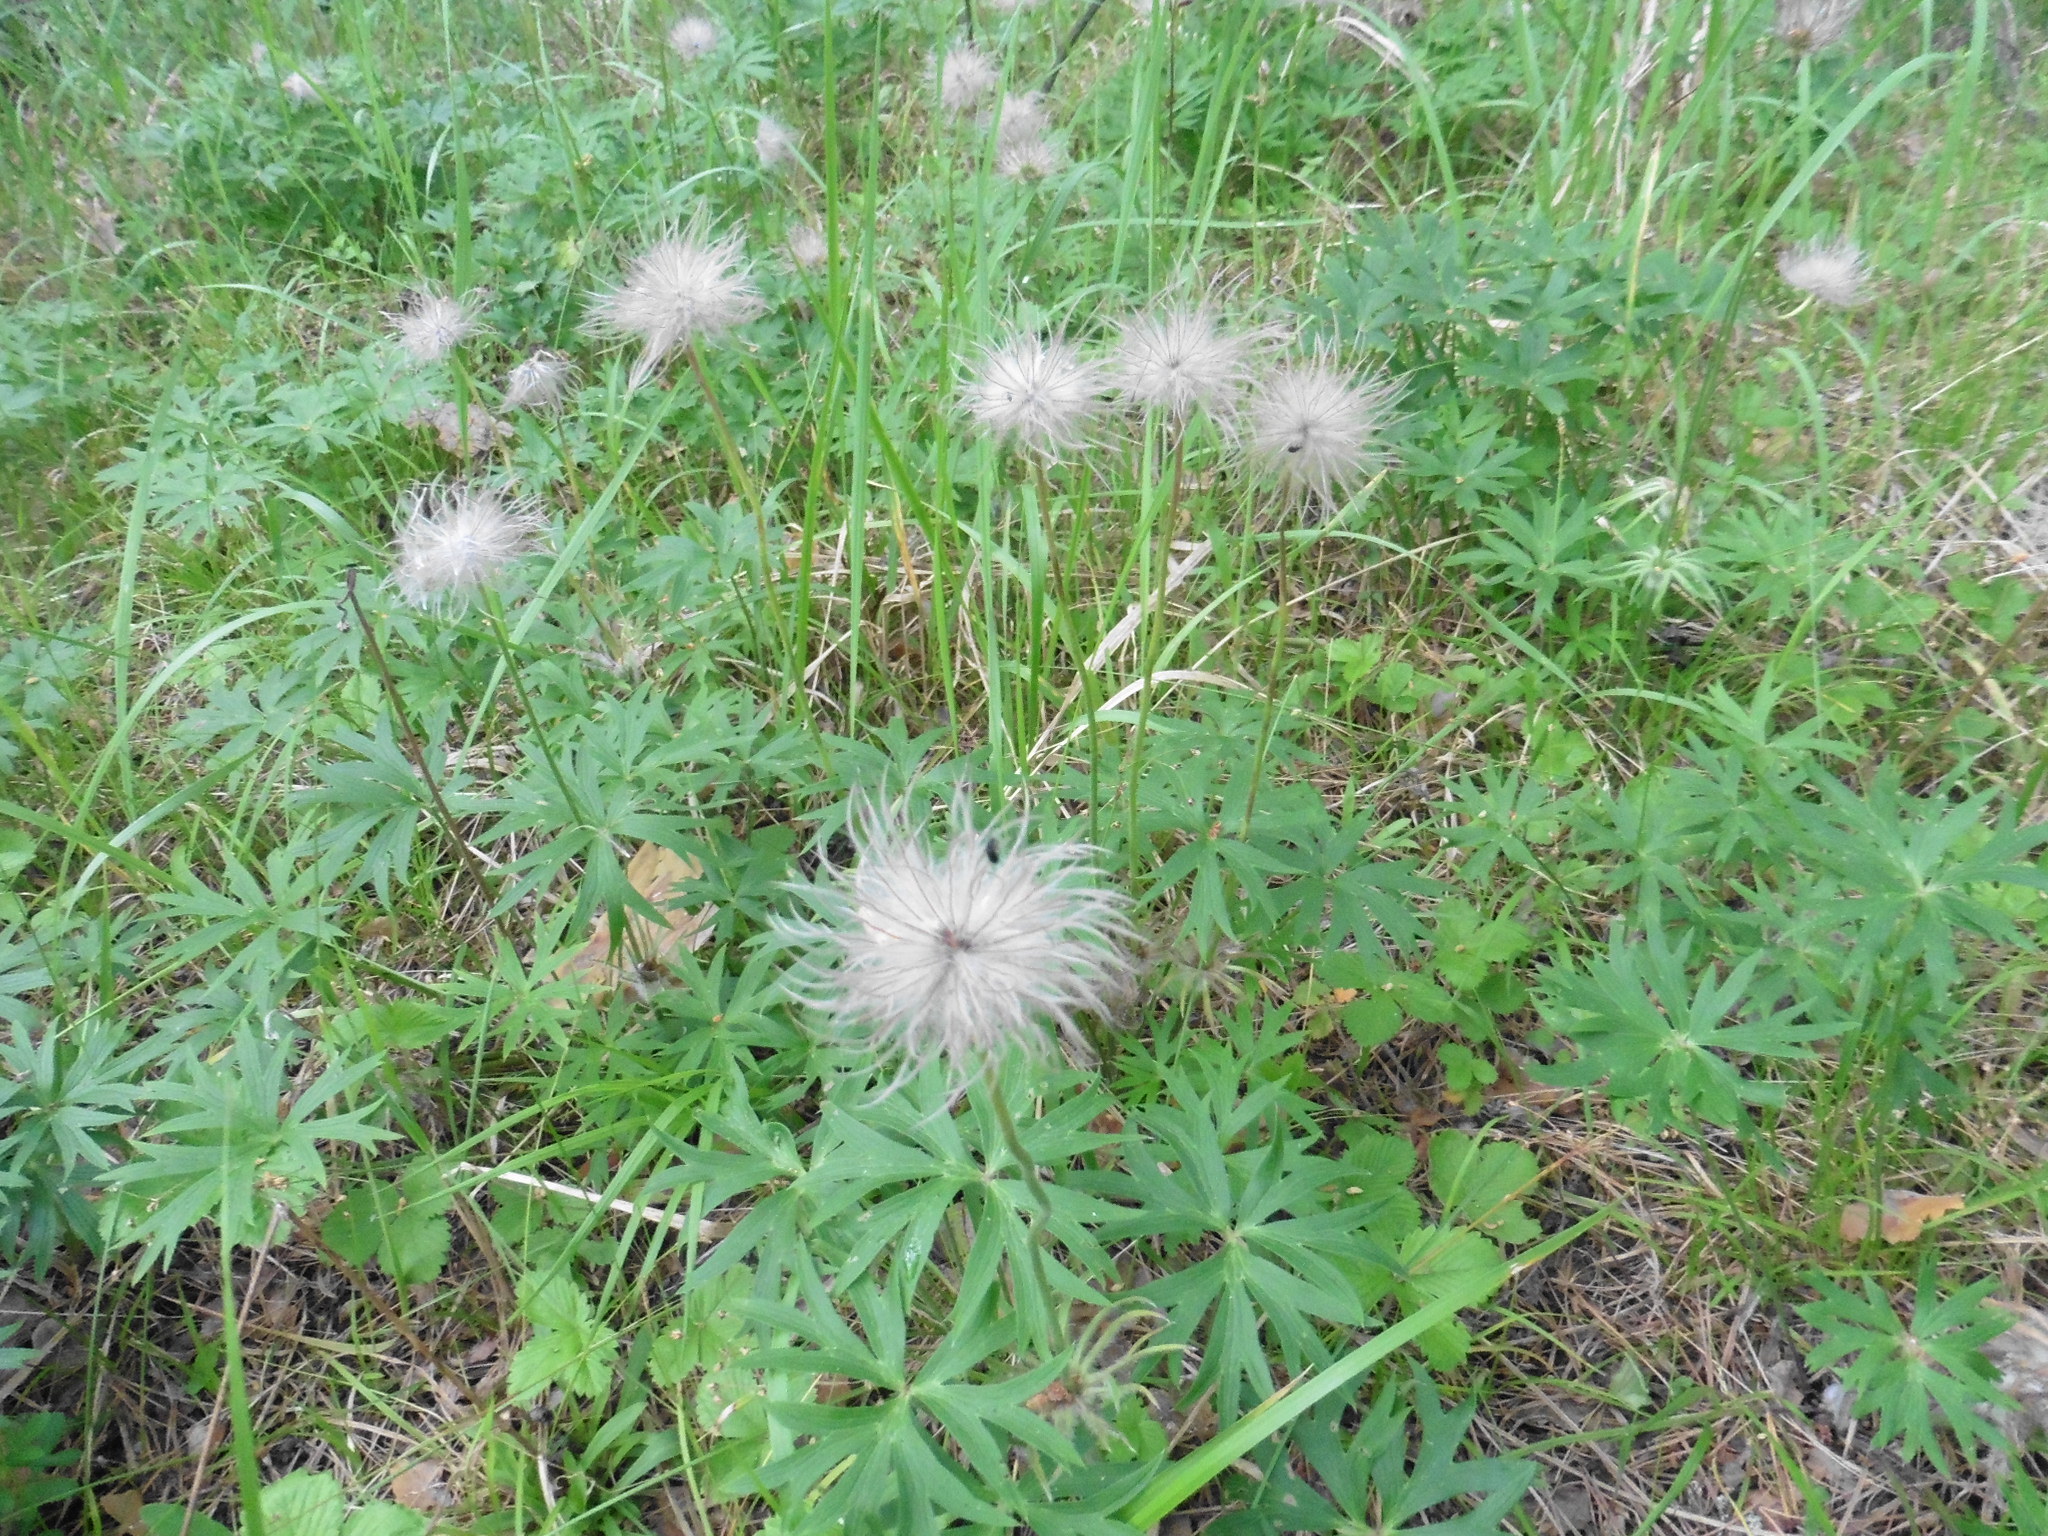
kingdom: Plantae
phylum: Tracheophyta
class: Magnoliopsida
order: Ranunculales
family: Ranunculaceae
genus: Pulsatilla
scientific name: Pulsatilla patens
